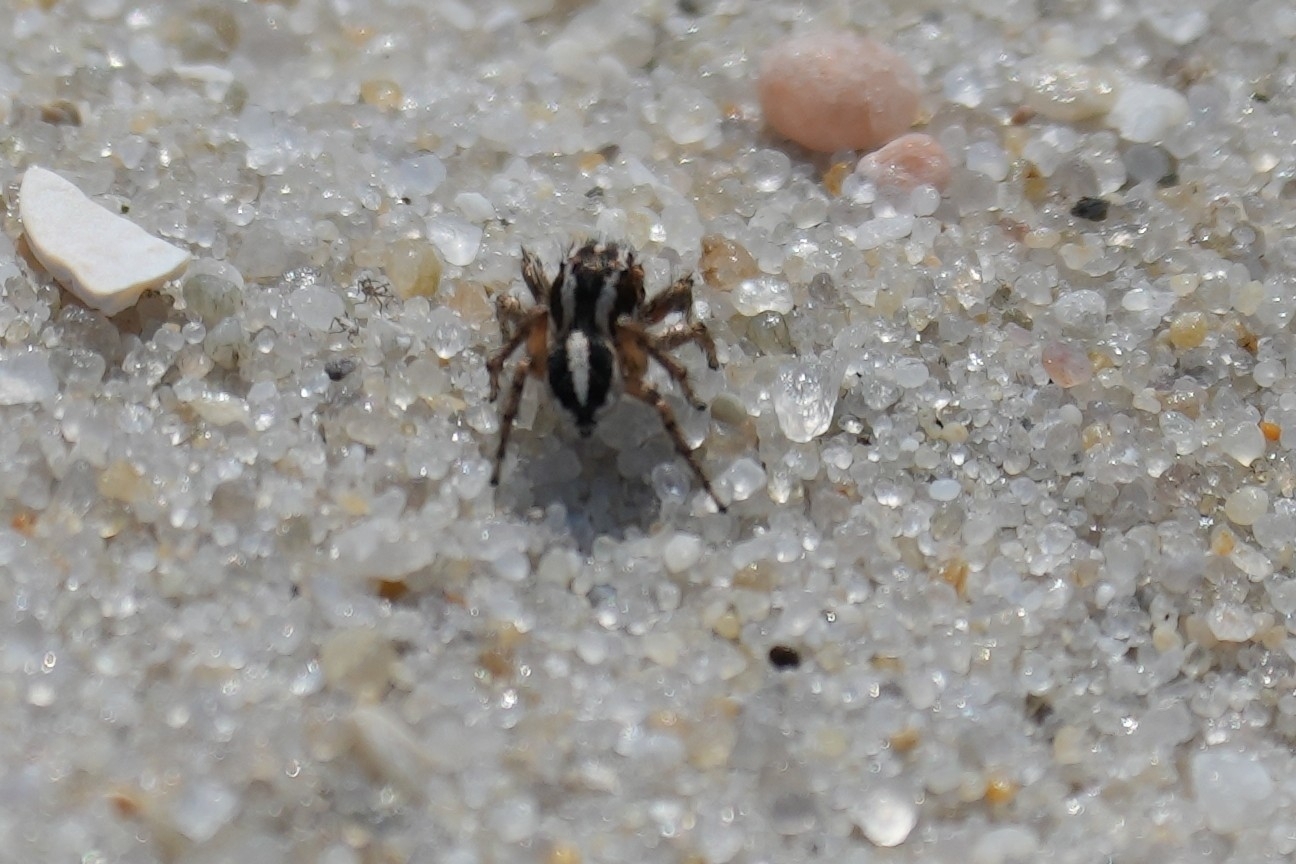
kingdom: Animalia
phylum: Arthropoda
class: Arachnida
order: Araneae
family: Salticidae
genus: Habronattus
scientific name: Habronattus agilis
